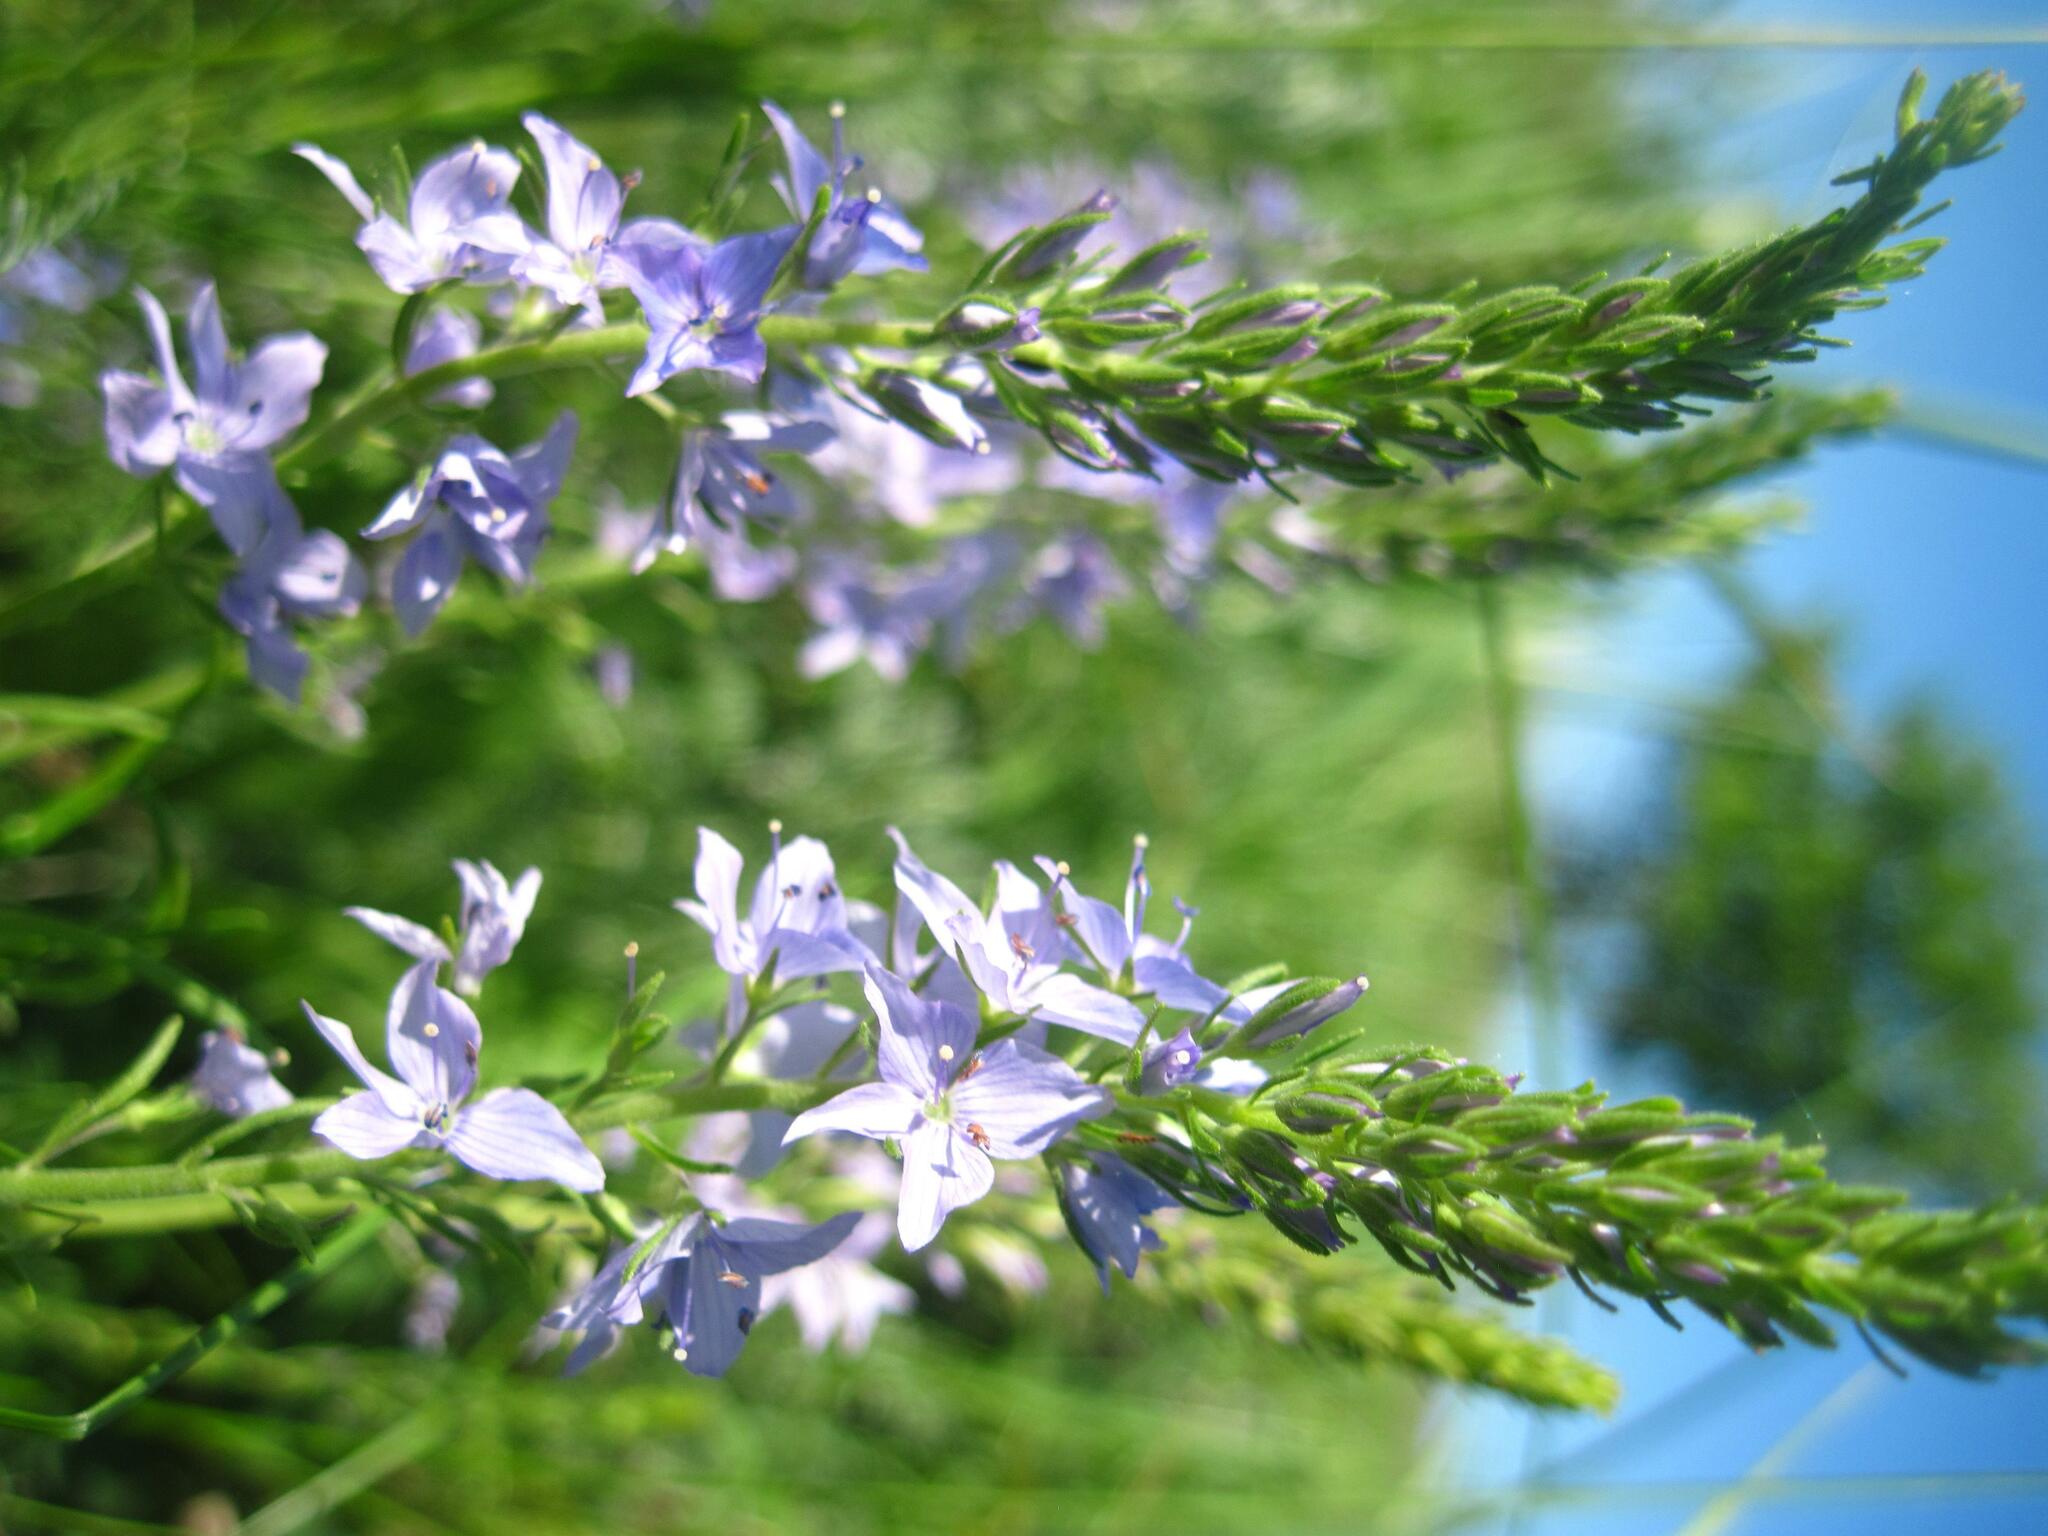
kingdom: Plantae
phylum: Tracheophyta
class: Magnoliopsida
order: Lamiales
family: Plantaginaceae
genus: Veronica
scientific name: Veronica austriaca
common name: Large speedwell
